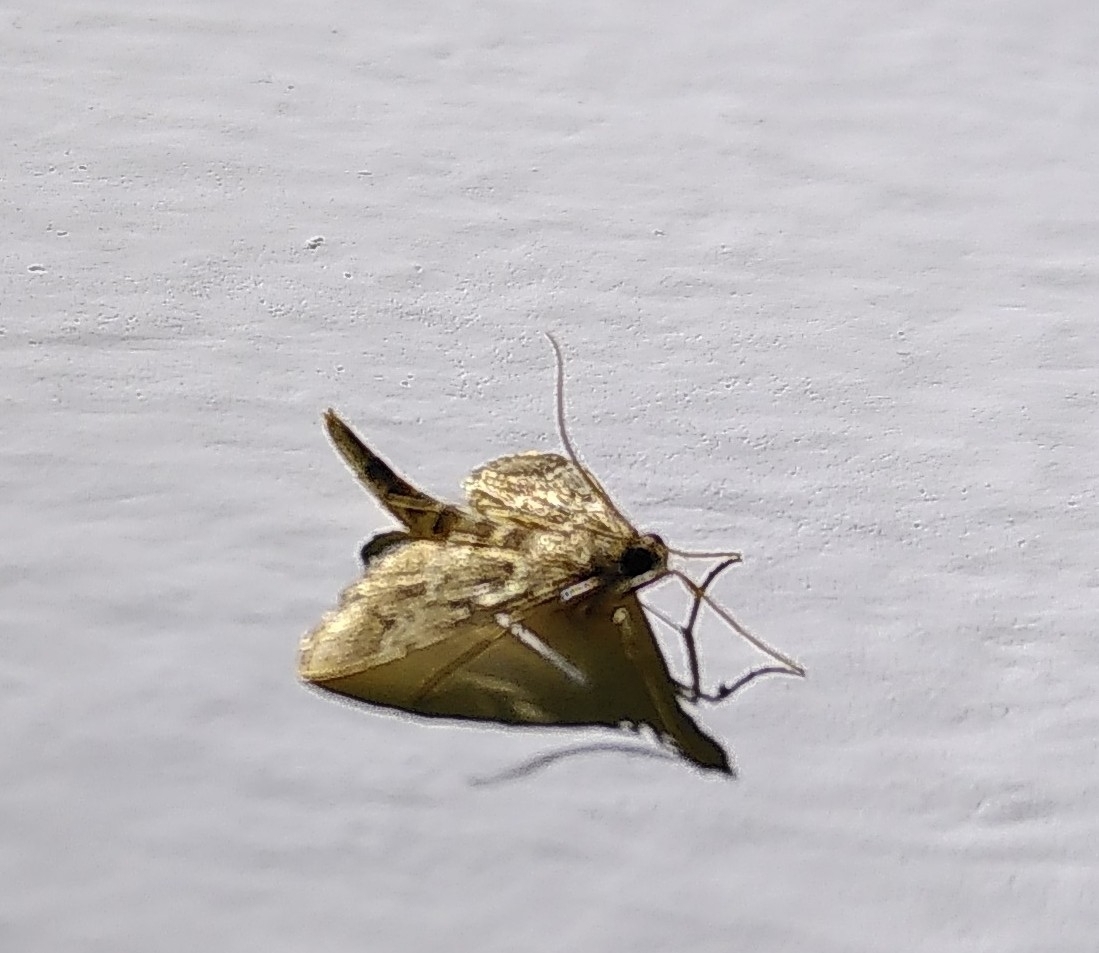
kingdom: Animalia
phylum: Arthropoda
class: Insecta
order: Lepidoptera
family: Crambidae
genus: Duponchelia
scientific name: Duponchelia fovealis
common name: Crambid moth
